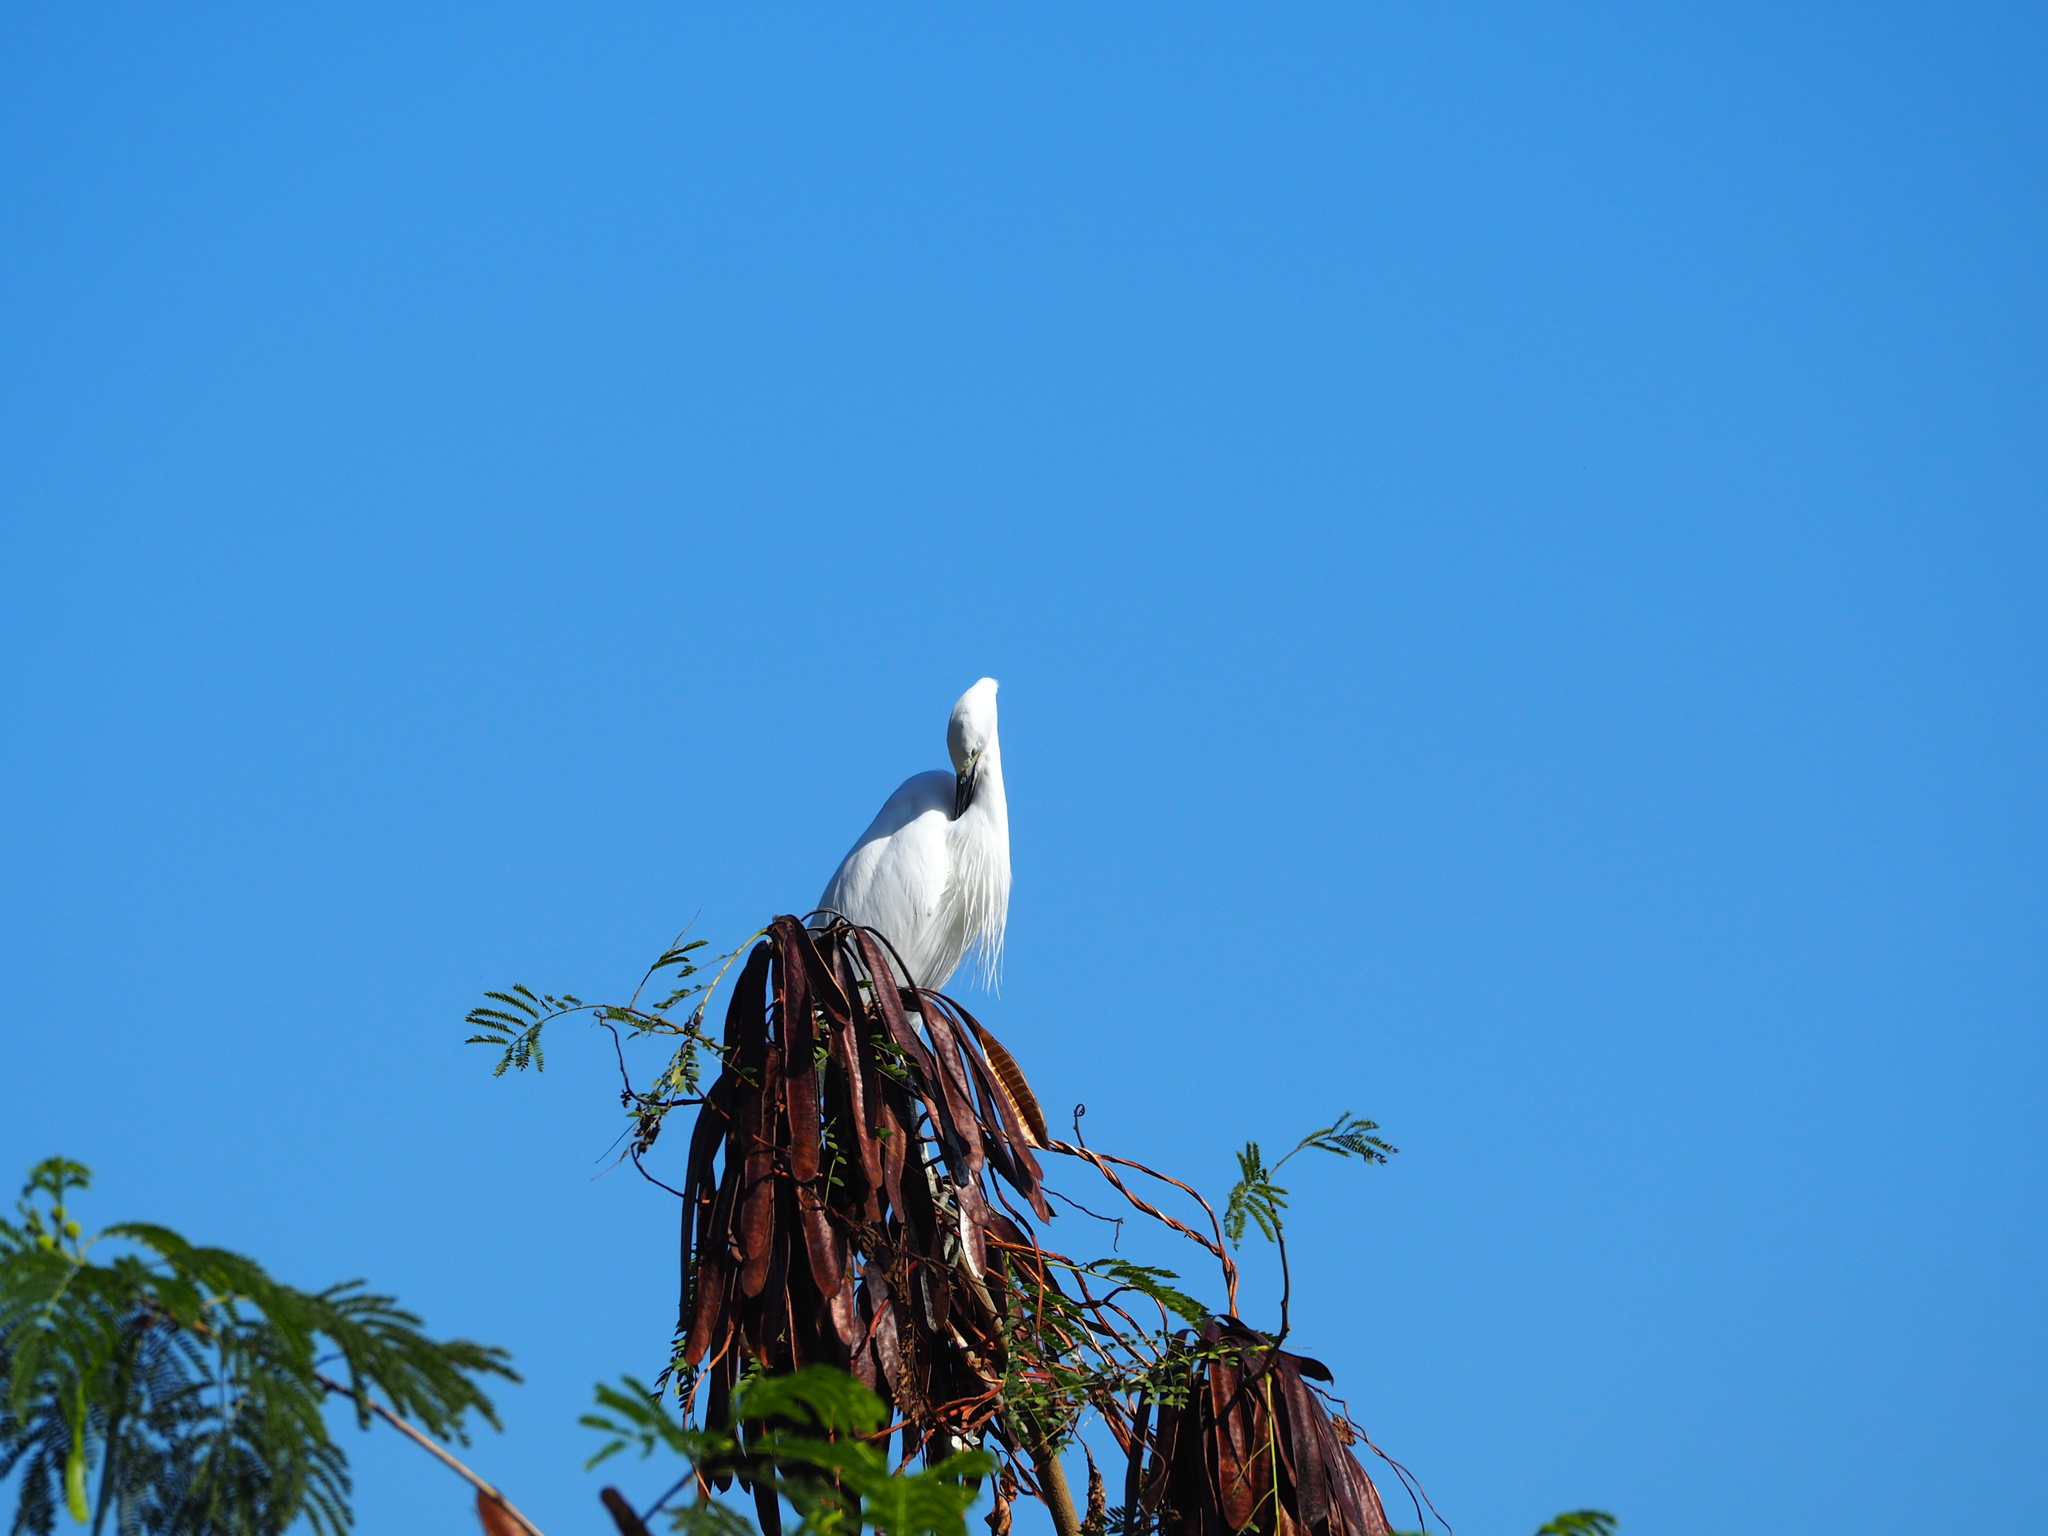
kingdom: Animalia
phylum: Chordata
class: Aves
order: Pelecaniformes
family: Ardeidae
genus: Egretta
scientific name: Egretta garzetta
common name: Little egret
